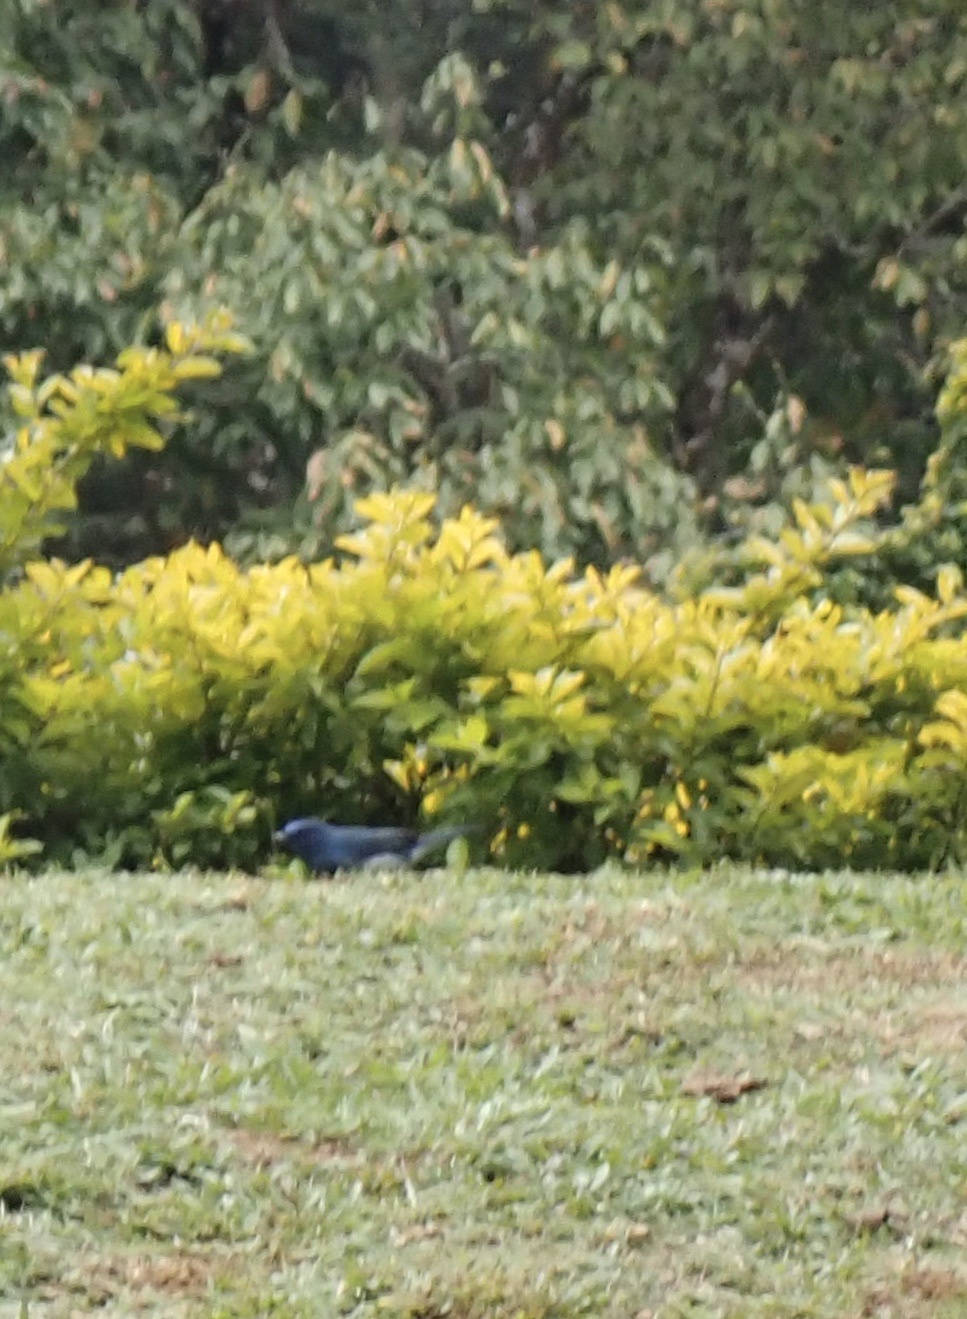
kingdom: Animalia
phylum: Chordata
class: Aves
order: Passeriformes
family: Muscicapidae
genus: Eumyias
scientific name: Eumyias albicaudatus
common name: Nilgiri flycatcher
